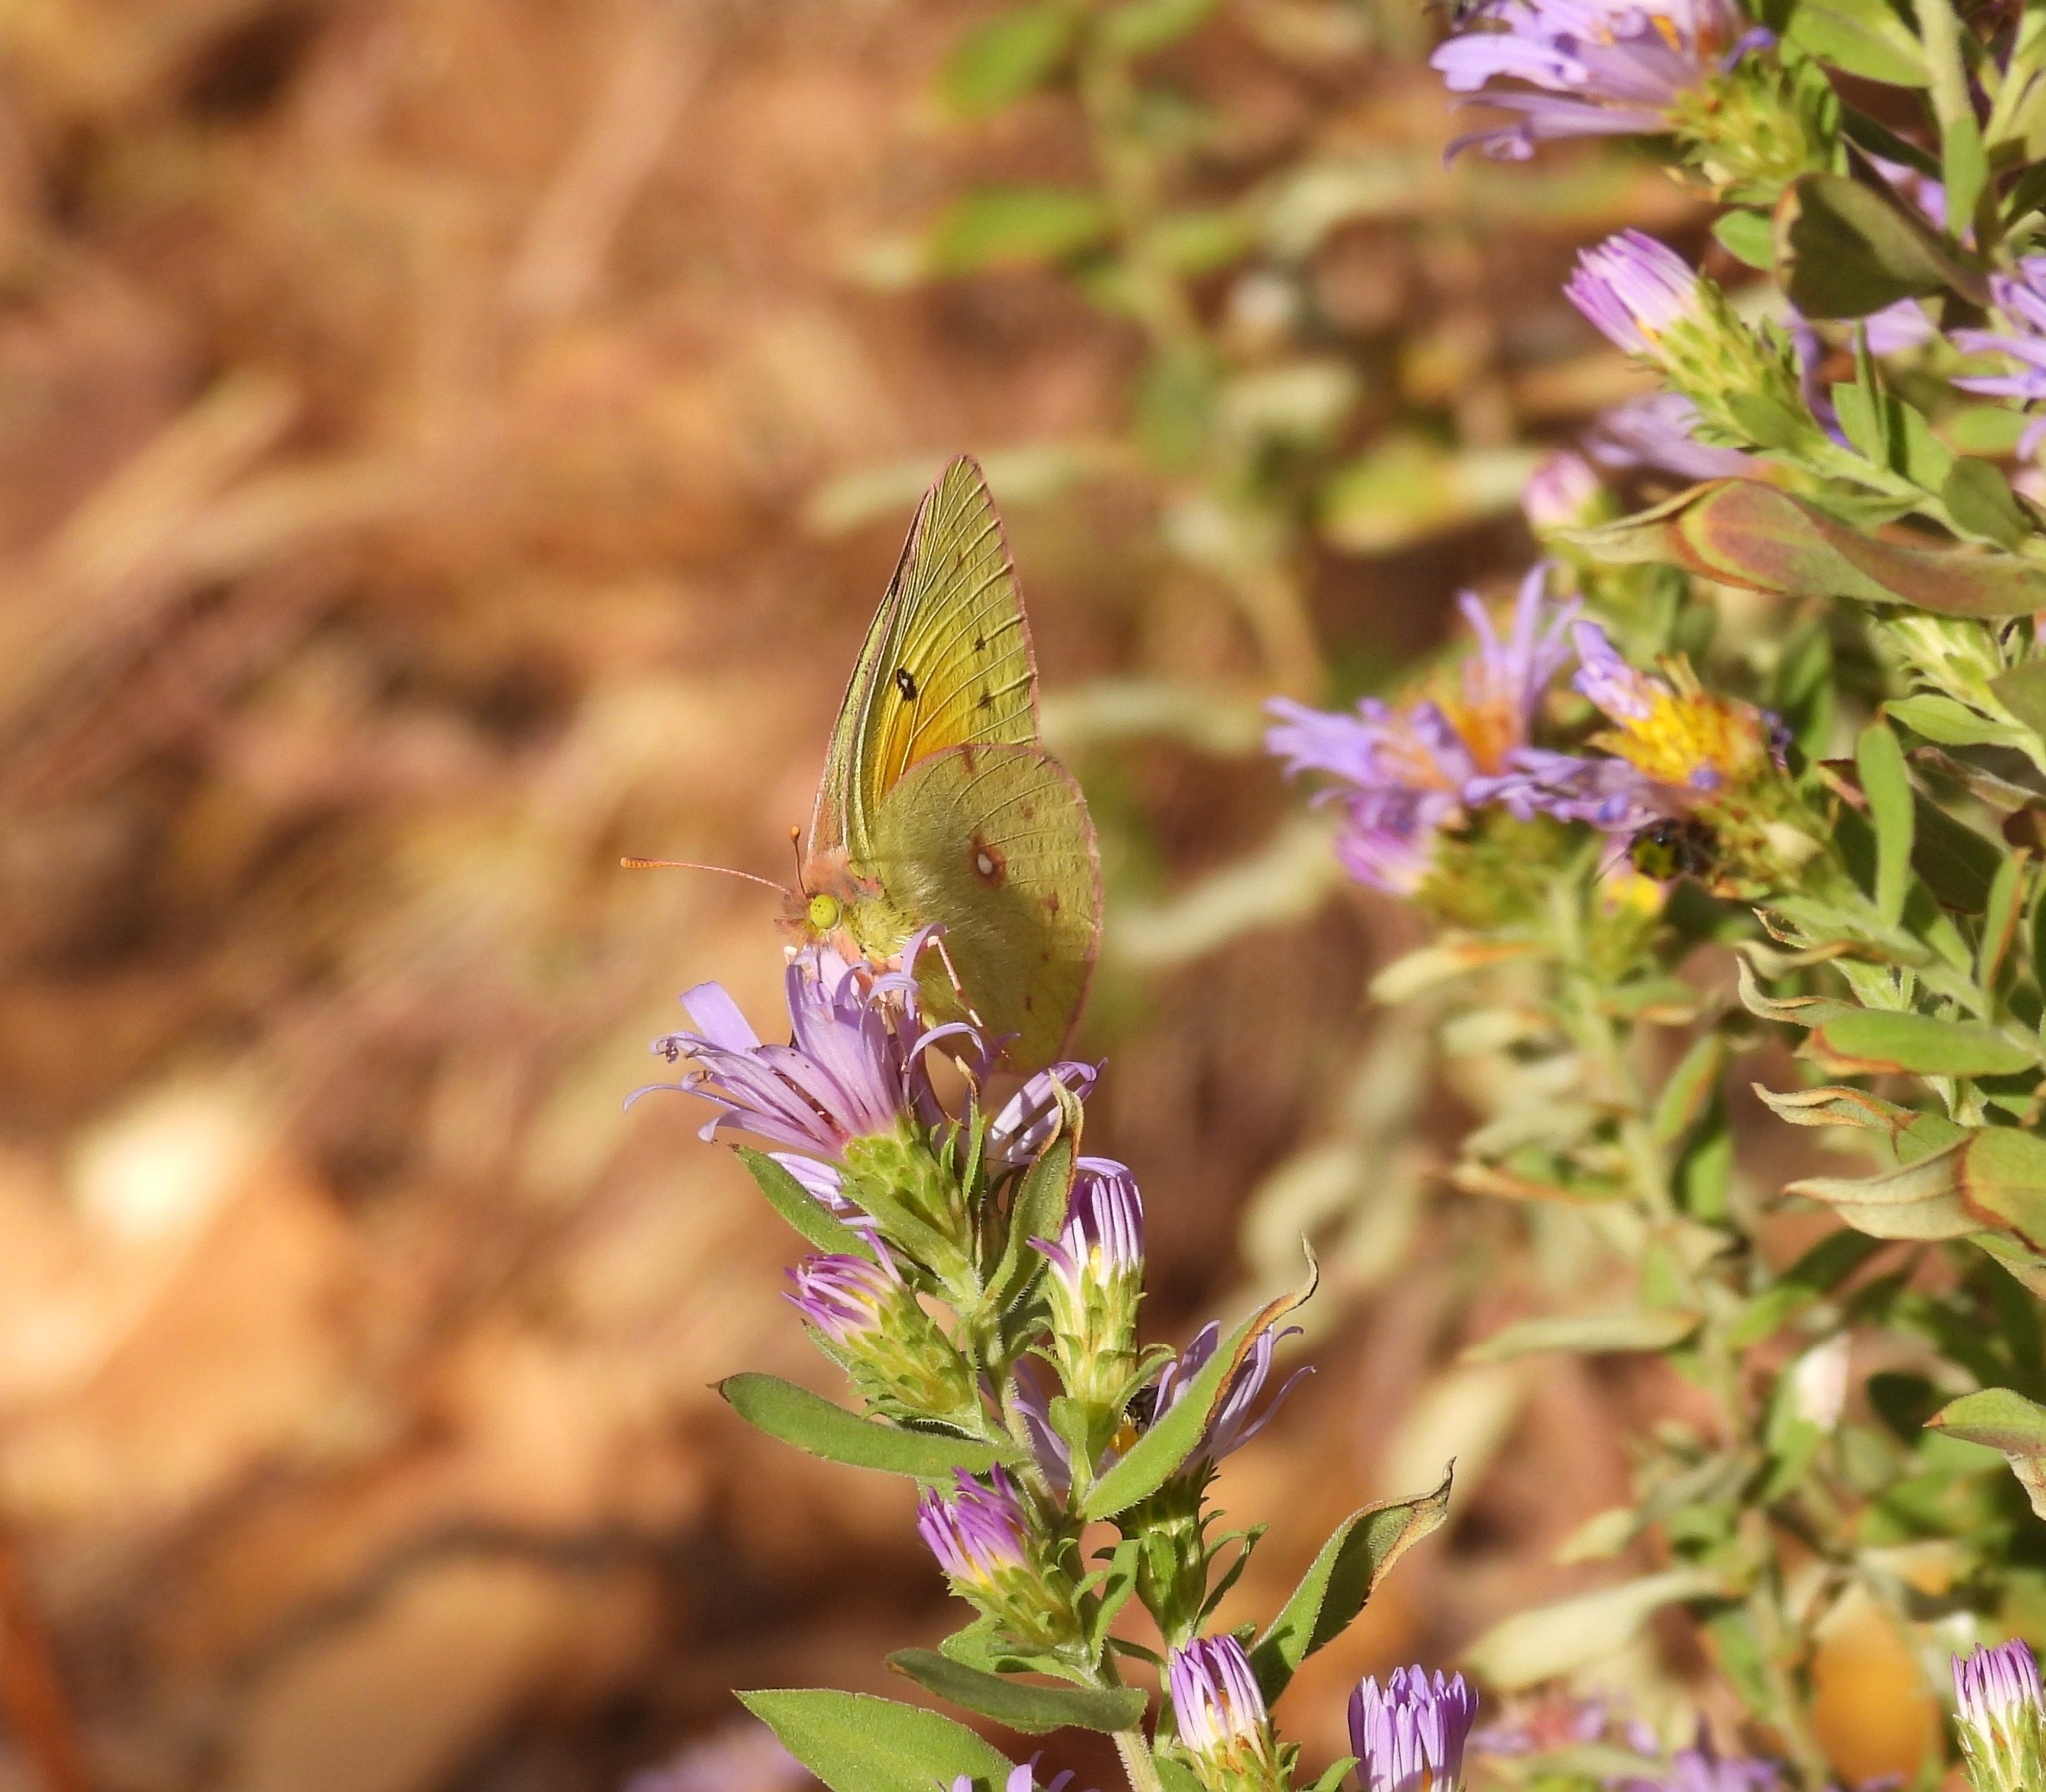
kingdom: Animalia
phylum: Arthropoda
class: Insecta
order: Lepidoptera
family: Pieridae
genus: Zerene
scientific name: Zerene cesonia
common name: Southern dogface
